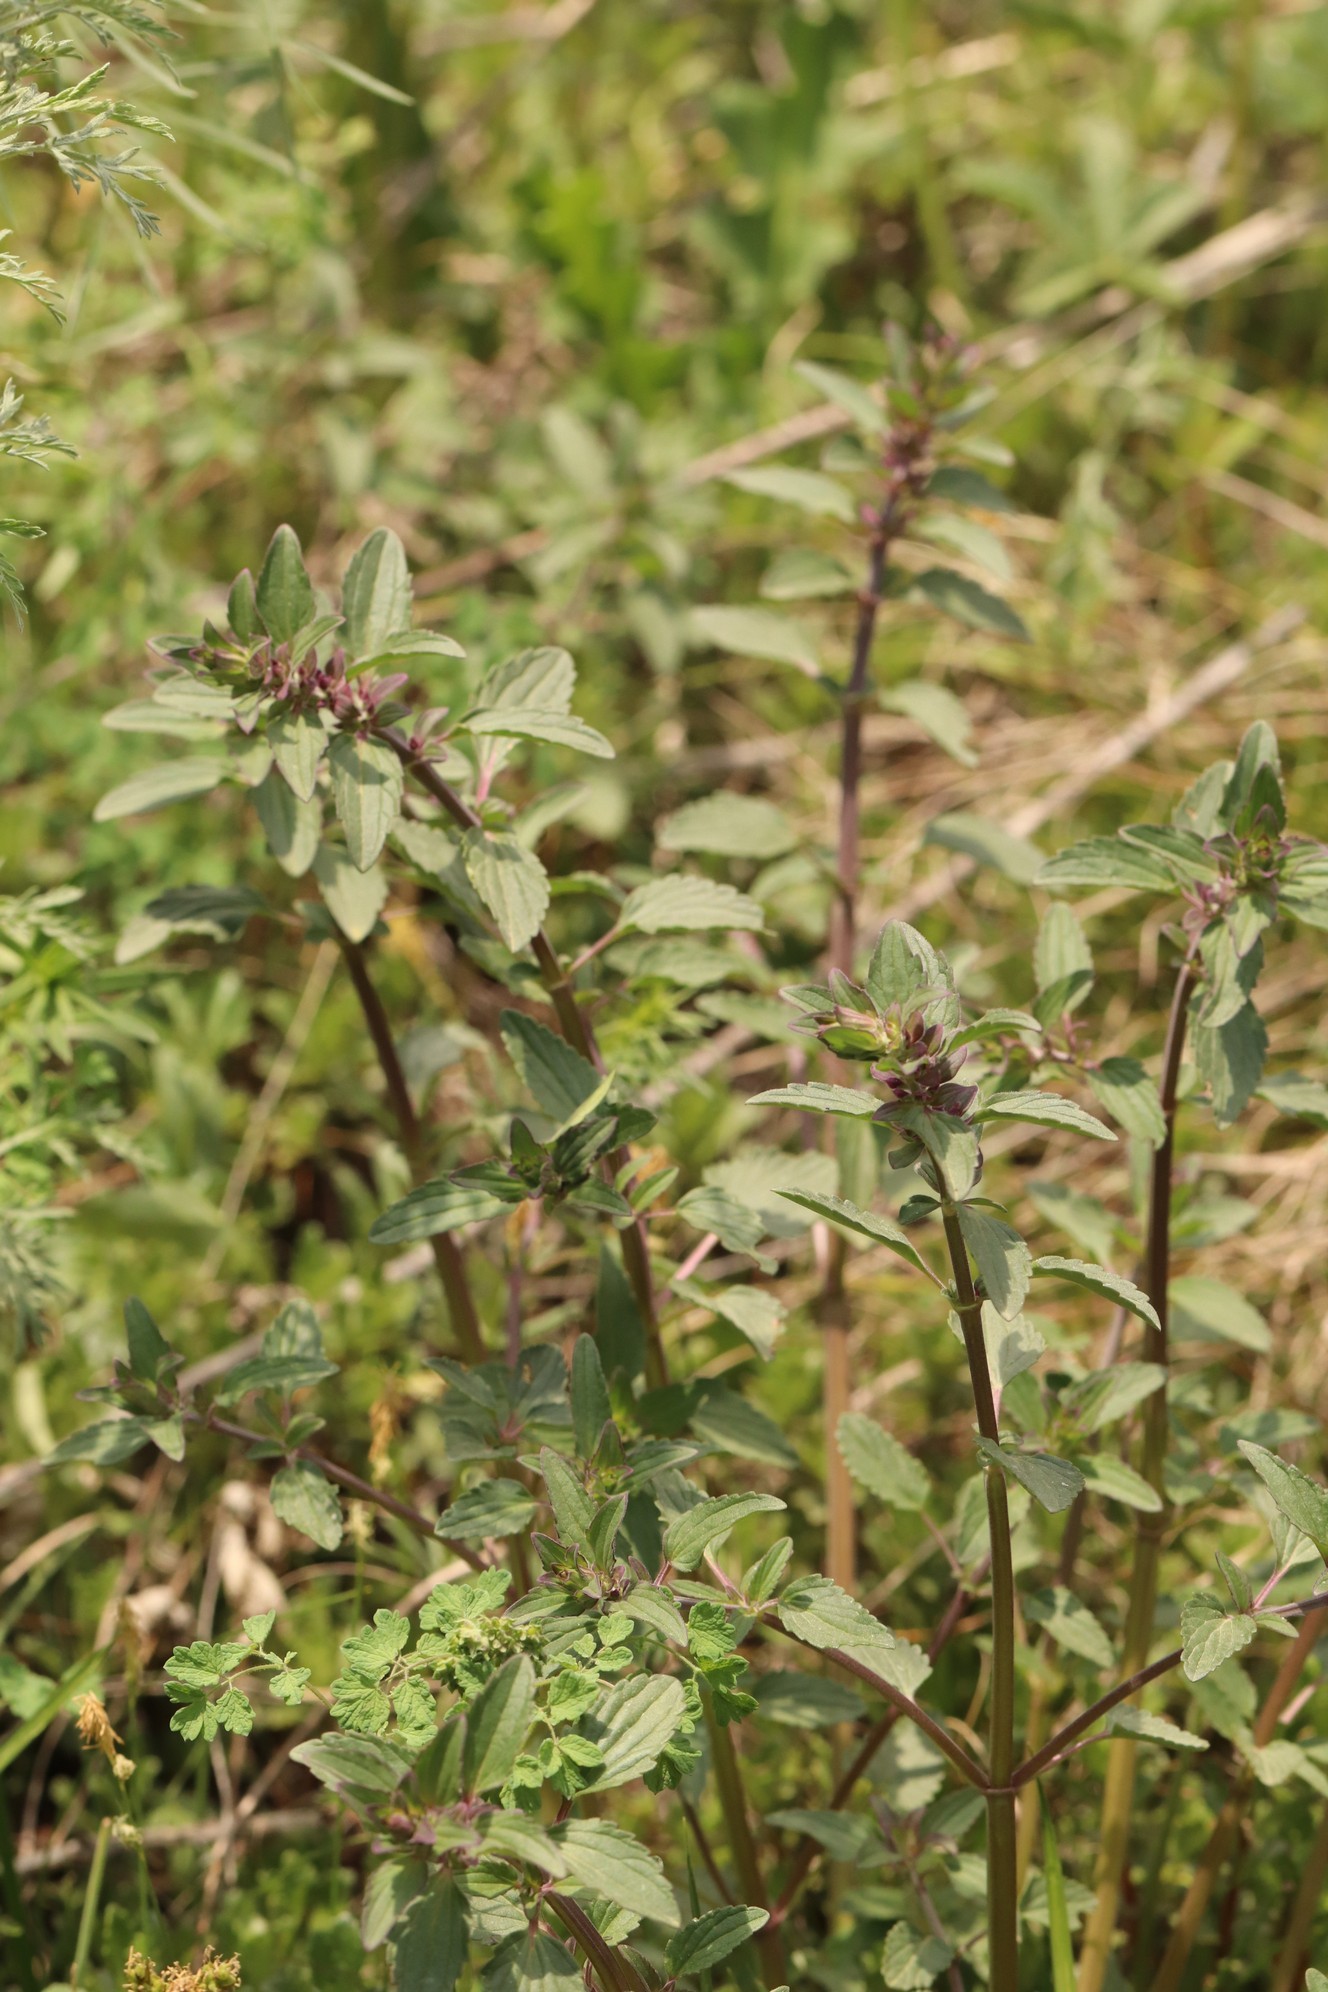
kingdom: Plantae
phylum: Tracheophyta
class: Magnoliopsida
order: Lamiales
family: Lamiaceae
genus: Dracocephalum
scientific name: Dracocephalum nutans
